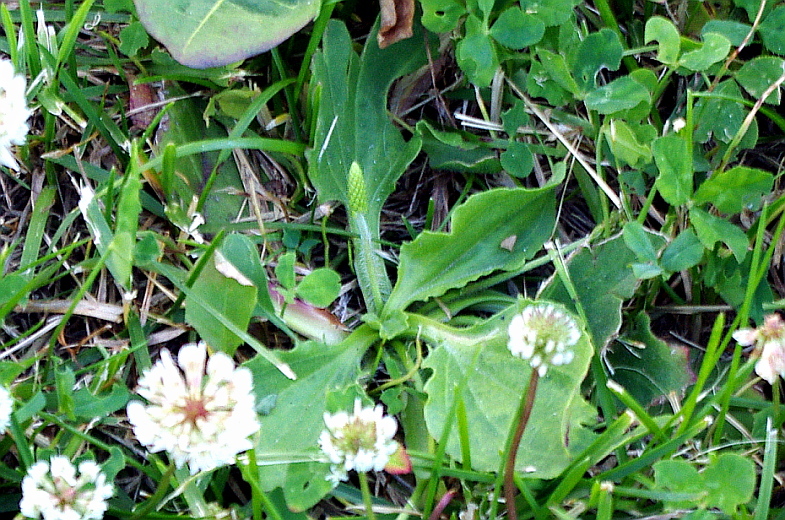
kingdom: Plantae
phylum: Tracheophyta
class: Magnoliopsida
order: Lamiales
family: Plantaginaceae
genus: Plantago
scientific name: Plantago major
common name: Common plantain
